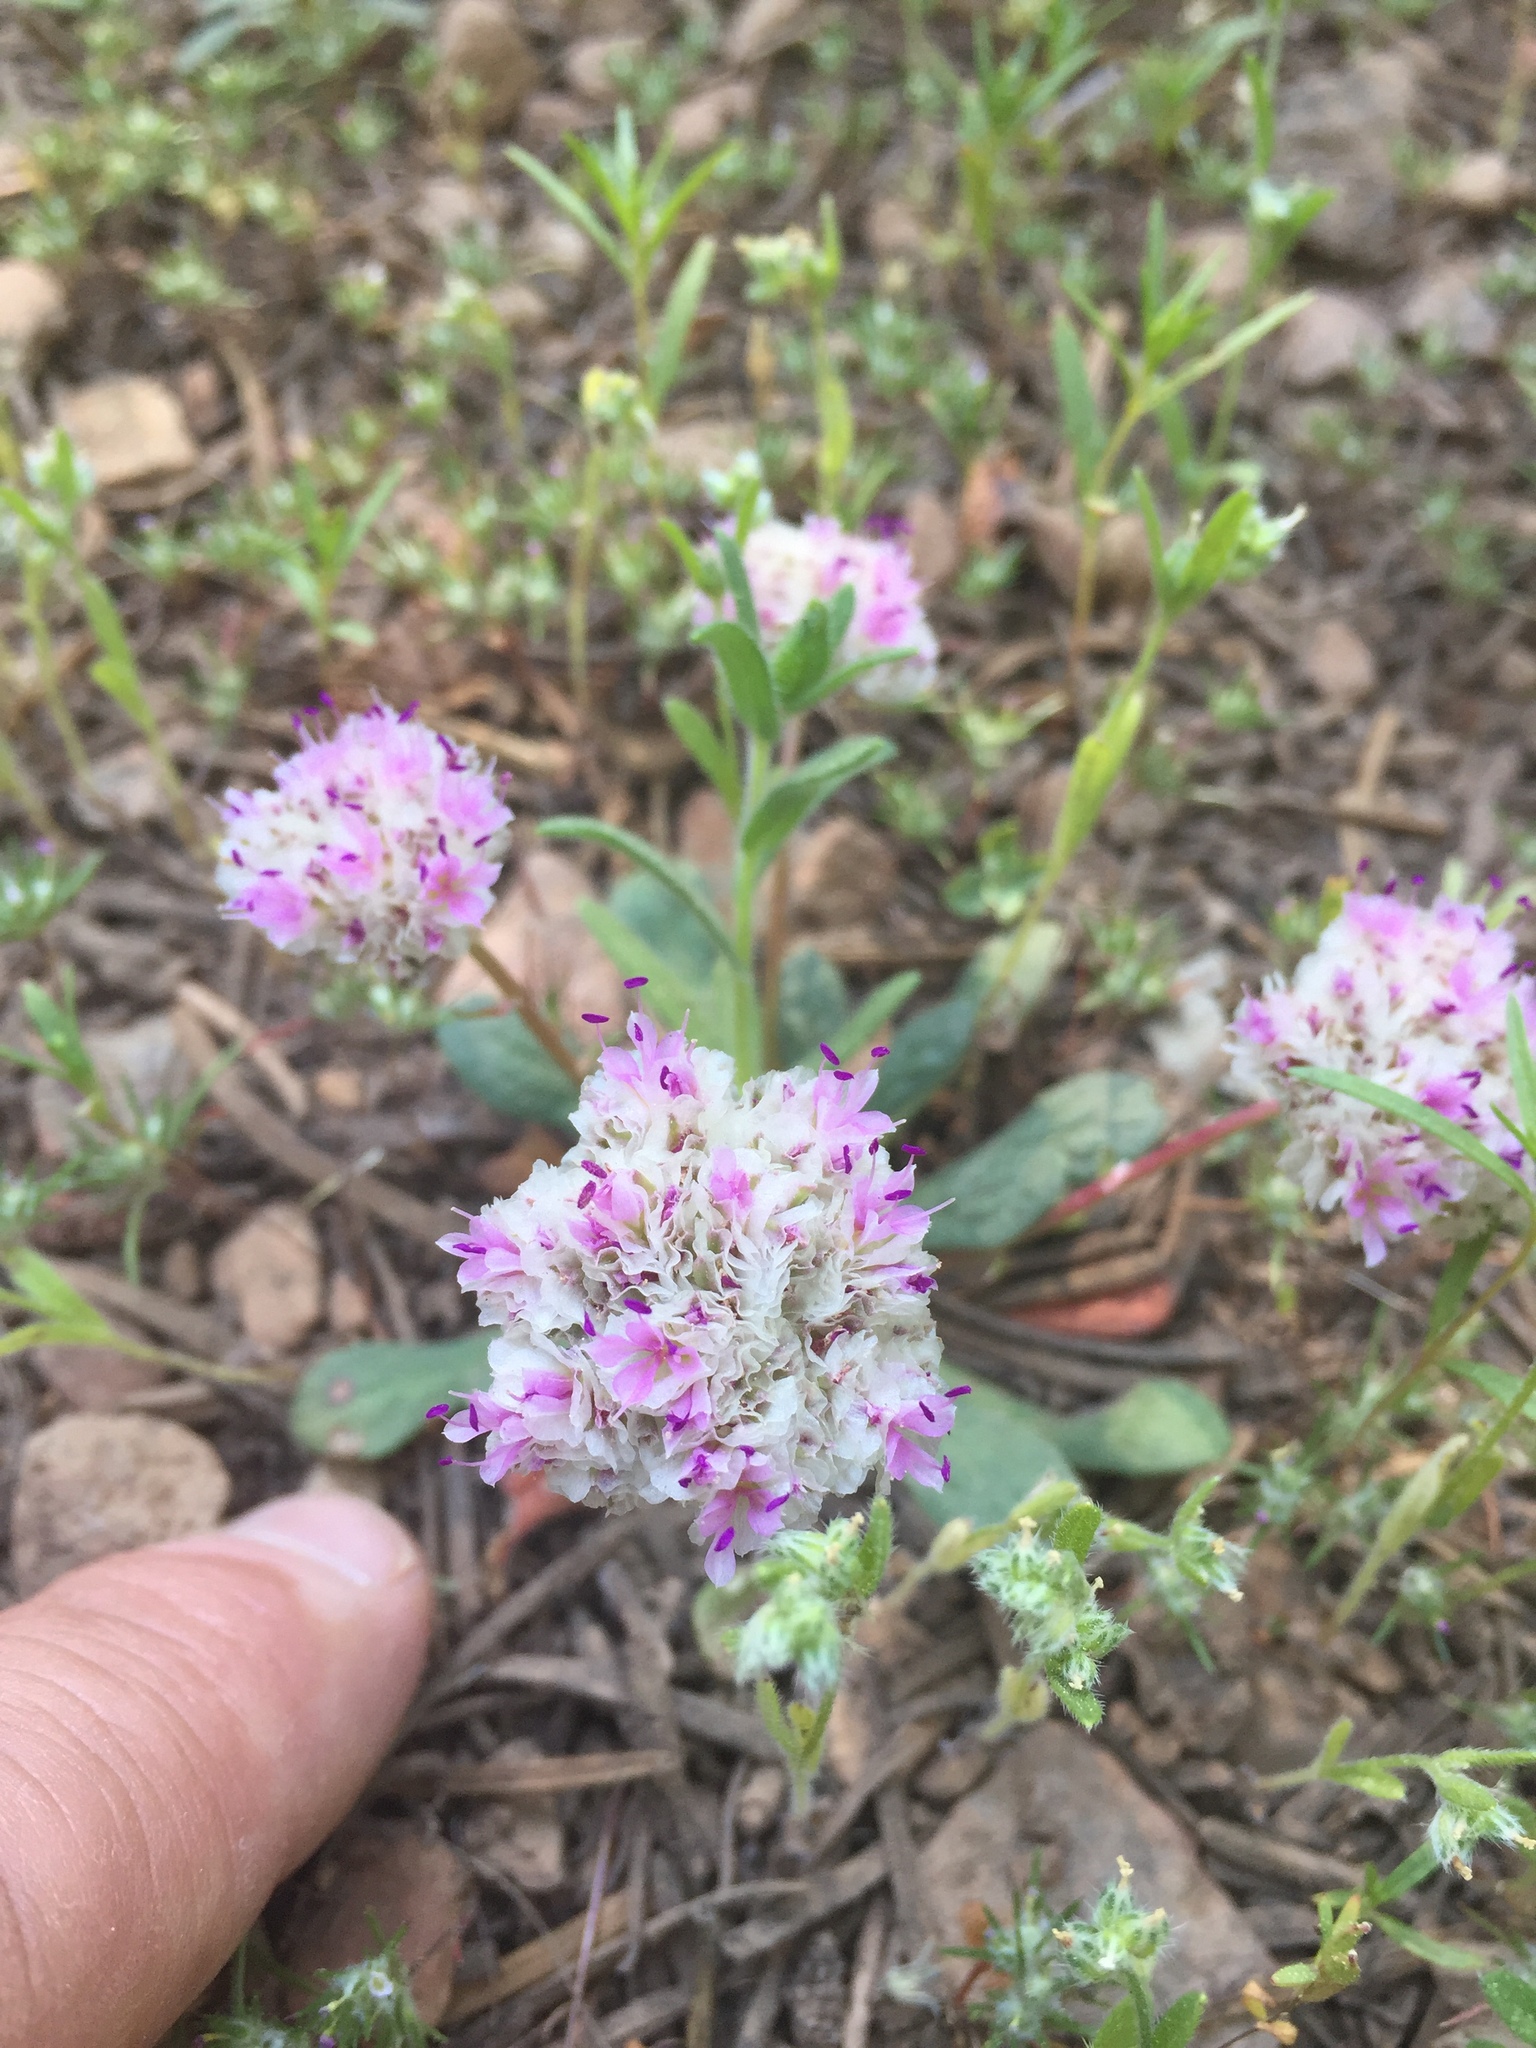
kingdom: Plantae
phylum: Tracheophyta
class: Magnoliopsida
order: Caryophyllales
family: Montiaceae
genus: Calyptridium
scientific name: Calyptridium monospermum
